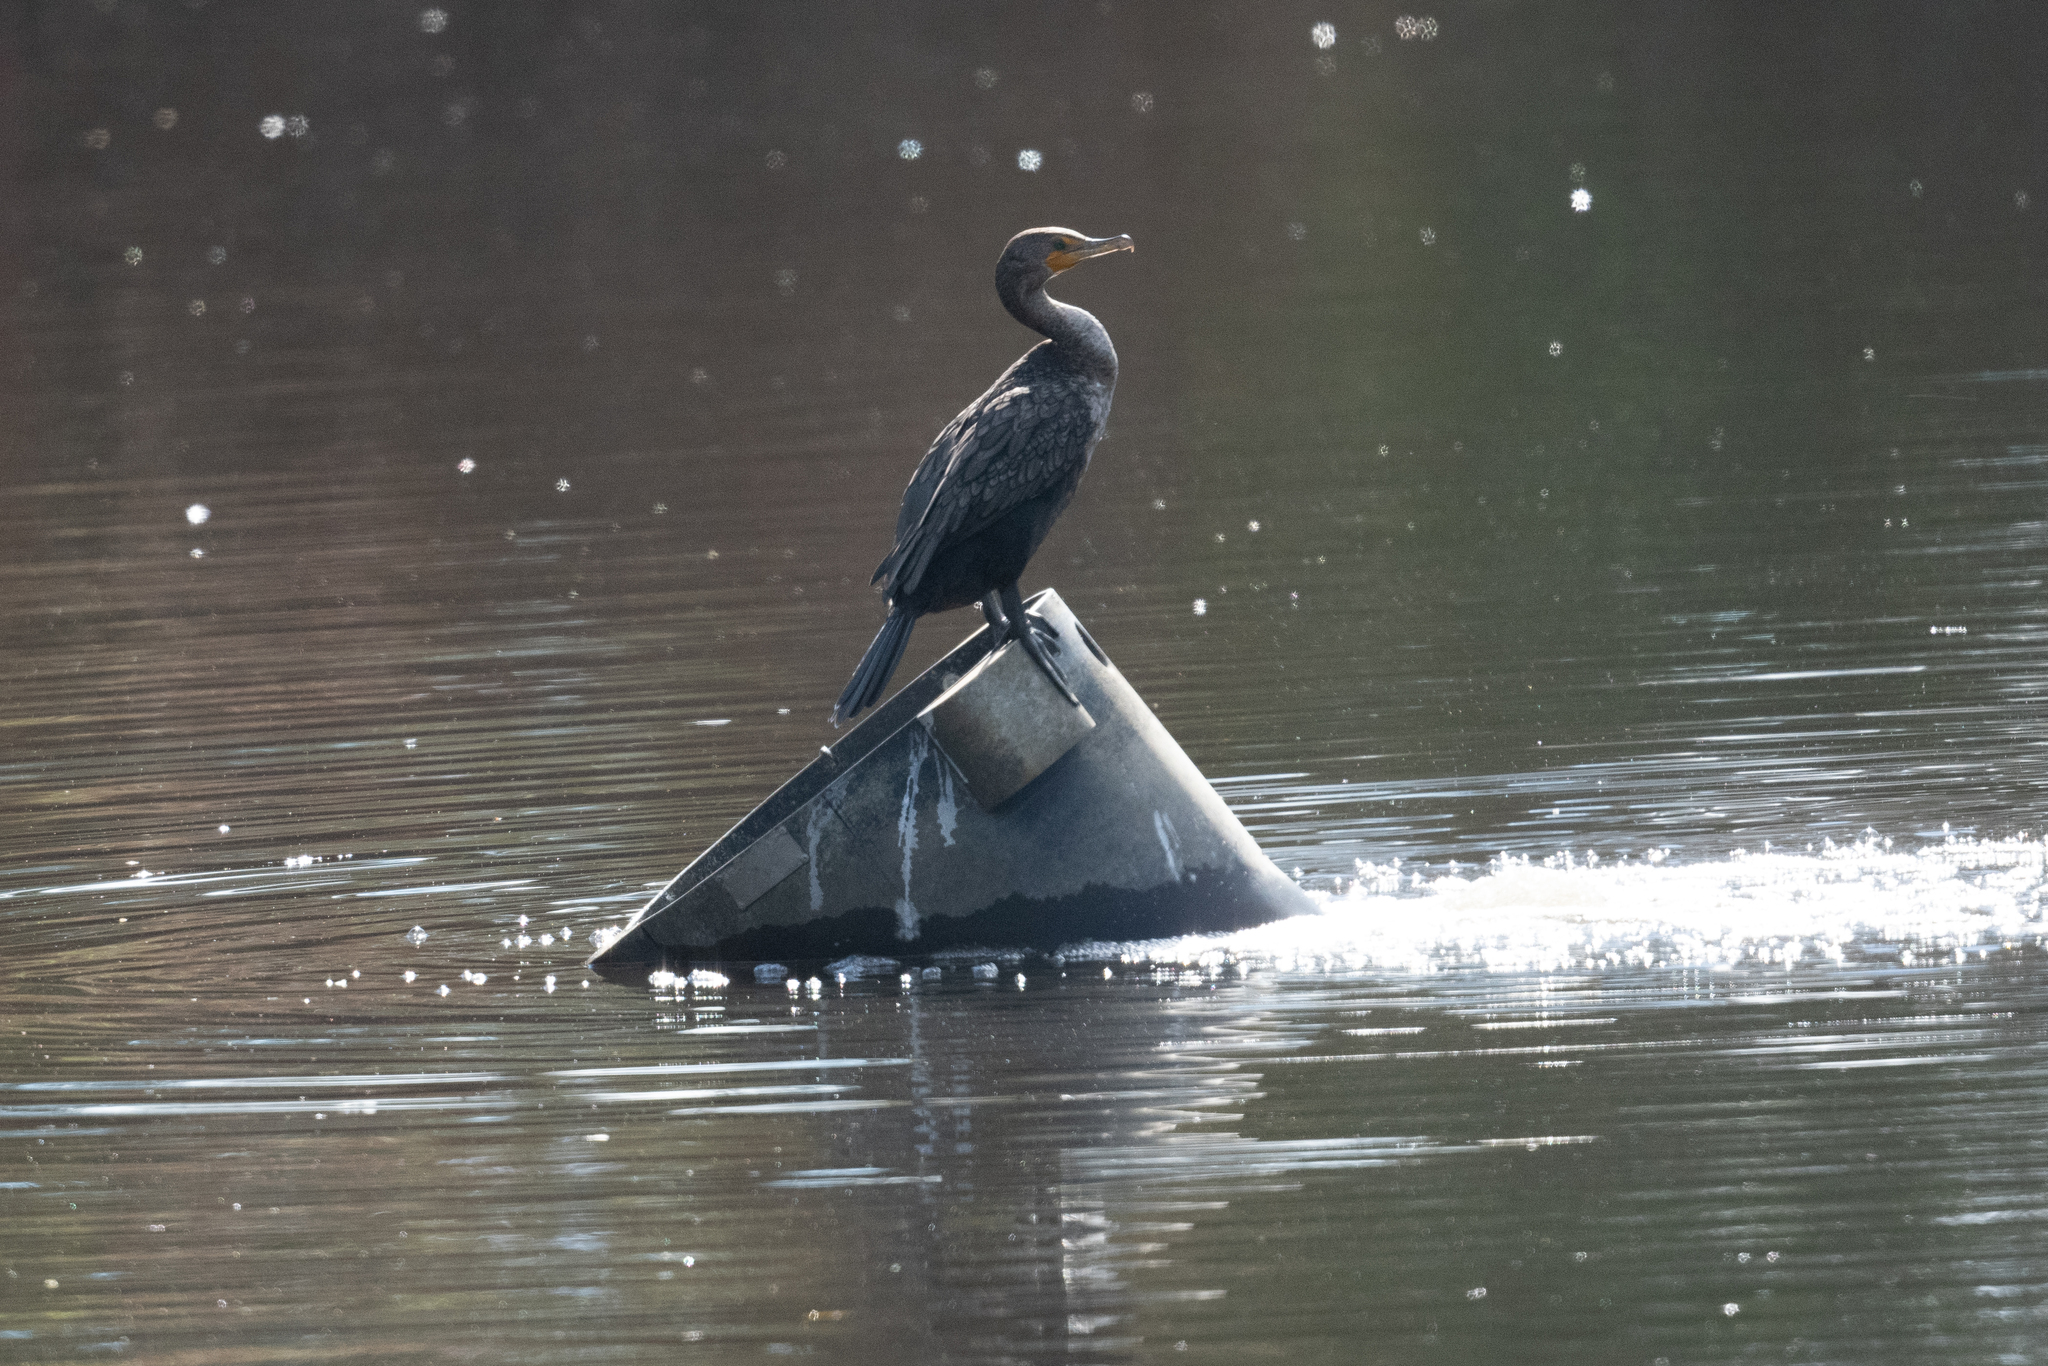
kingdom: Animalia
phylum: Chordata
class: Aves
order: Suliformes
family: Phalacrocoracidae
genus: Phalacrocorax
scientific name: Phalacrocorax auritus
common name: Double-crested cormorant
